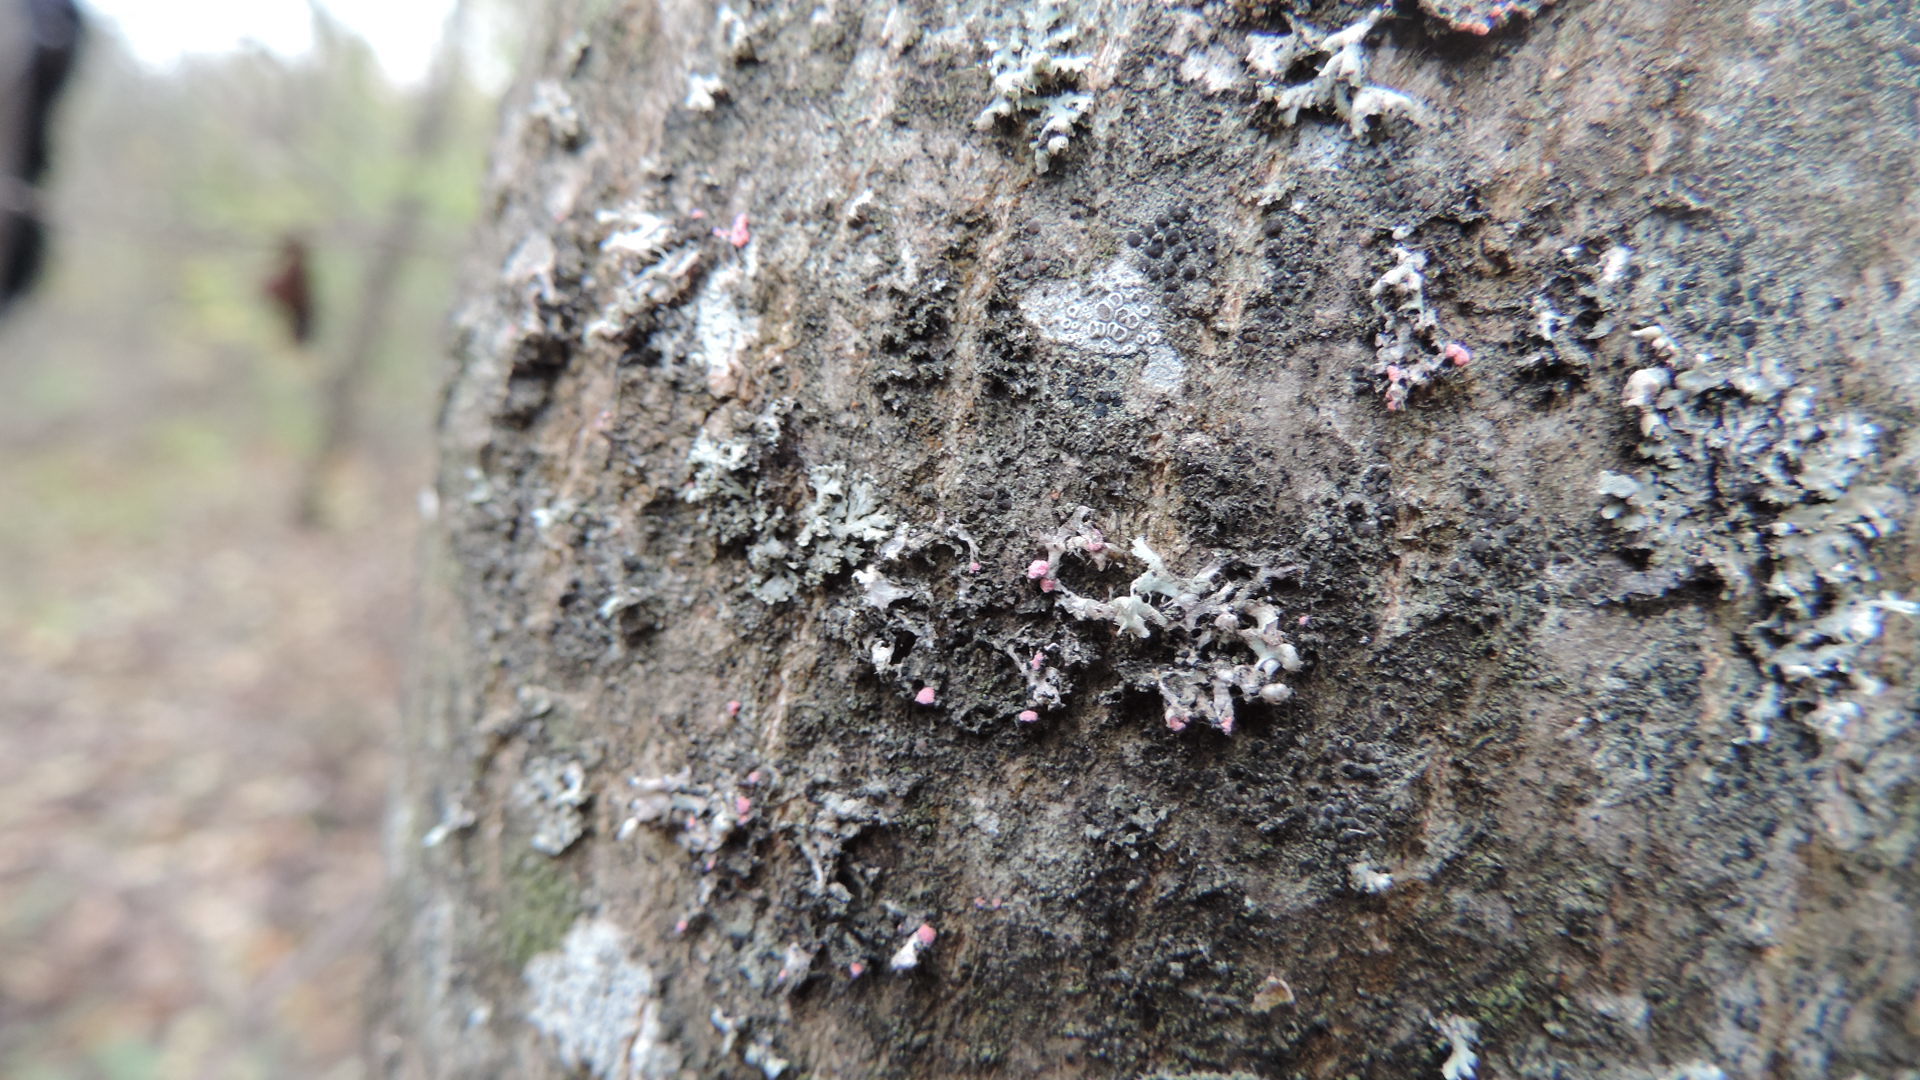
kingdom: Fungi
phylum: Ascomycota
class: Sordariomycetes
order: Hypocreales
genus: Illosporiopsis
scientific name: Illosporiopsis christiansenii
